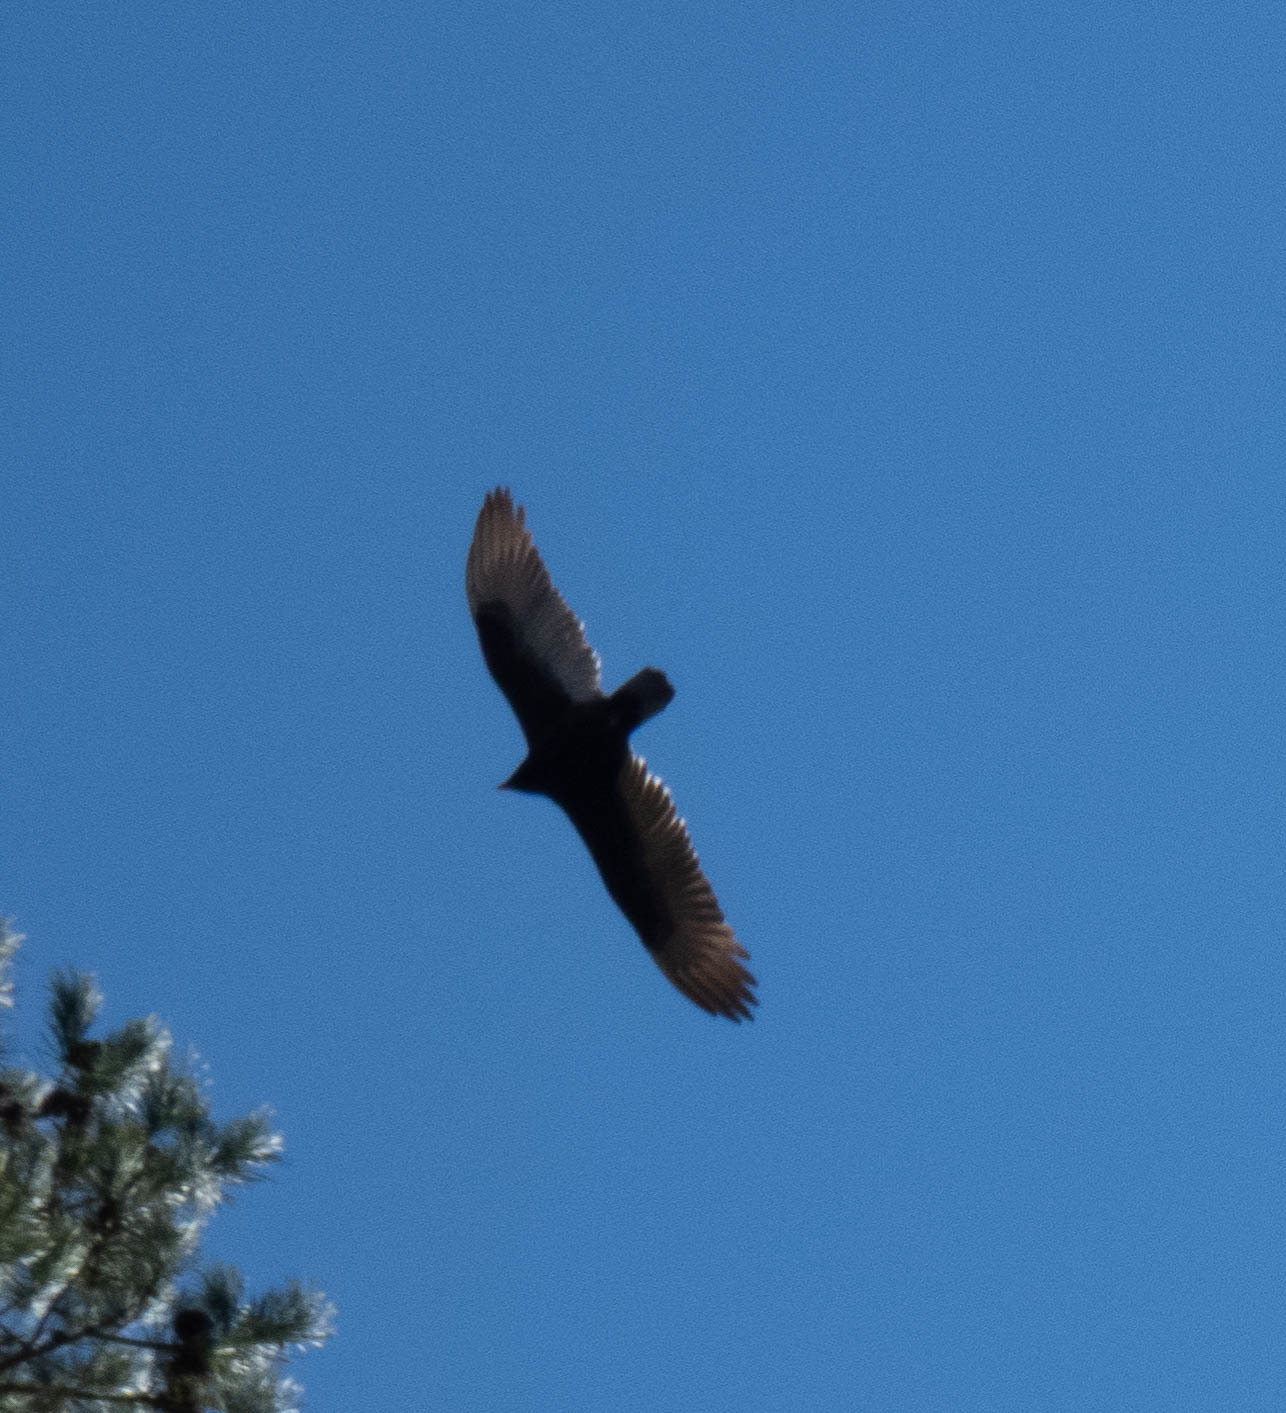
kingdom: Animalia
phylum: Chordata
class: Aves
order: Accipitriformes
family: Cathartidae
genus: Cathartes
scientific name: Cathartes aura
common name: Turkey vulture
